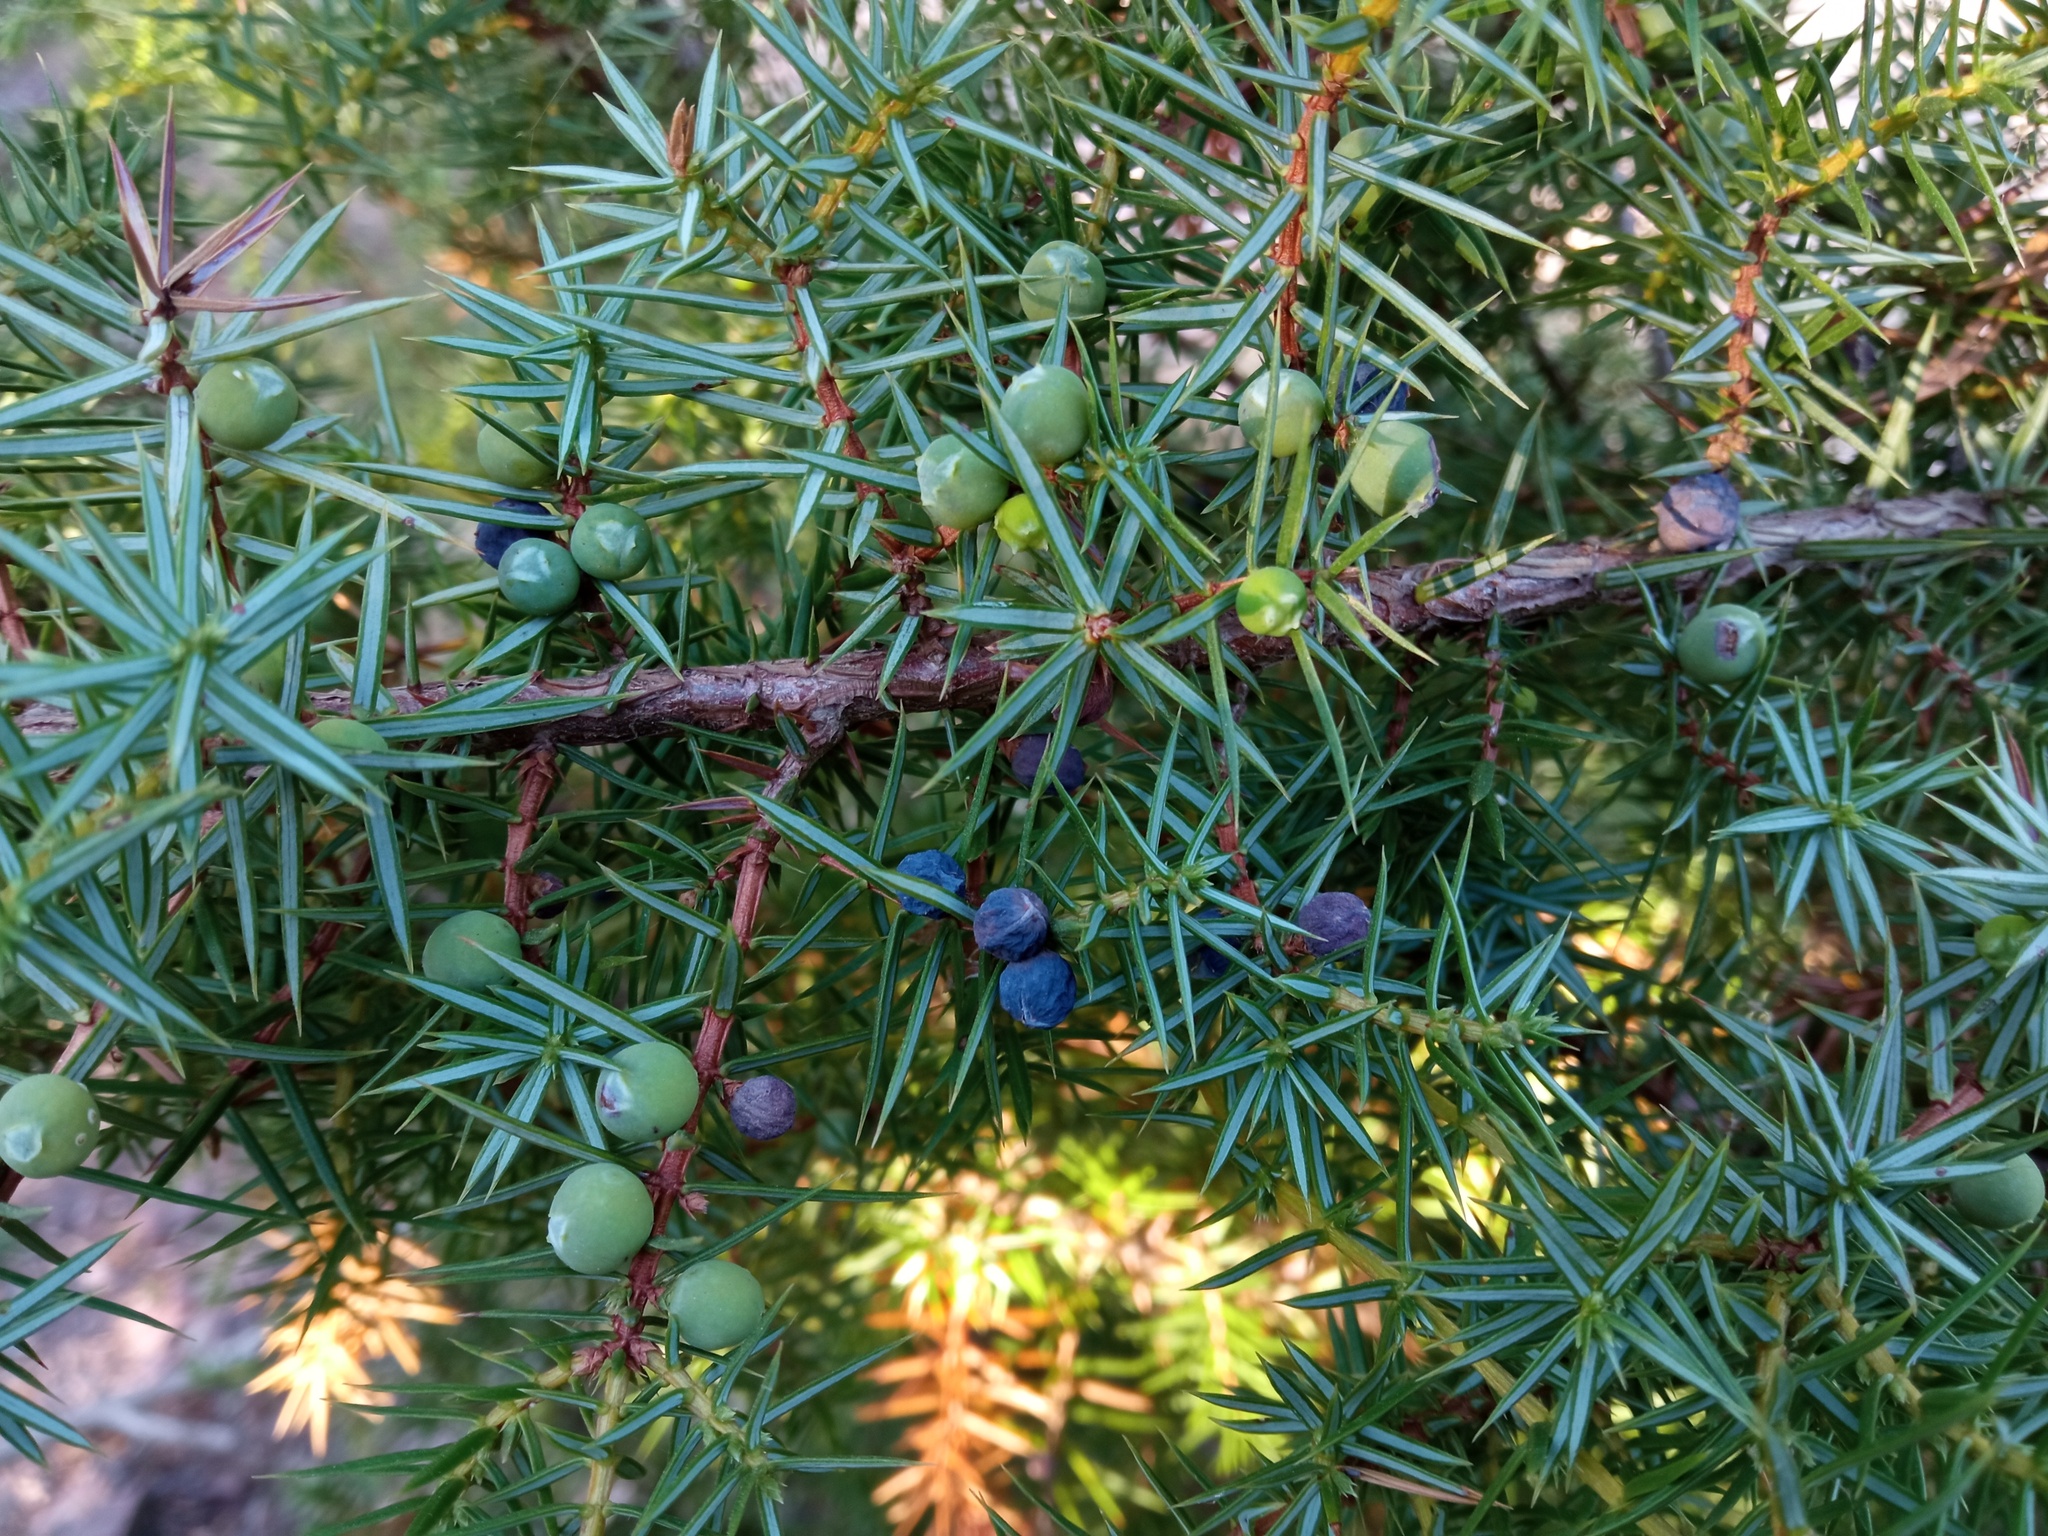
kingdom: Plantae
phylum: Tracheophyta
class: Pinopsida
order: Pinales
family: Cupressaceae
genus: Juniperus
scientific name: Juniperus communis
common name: Common juniper
